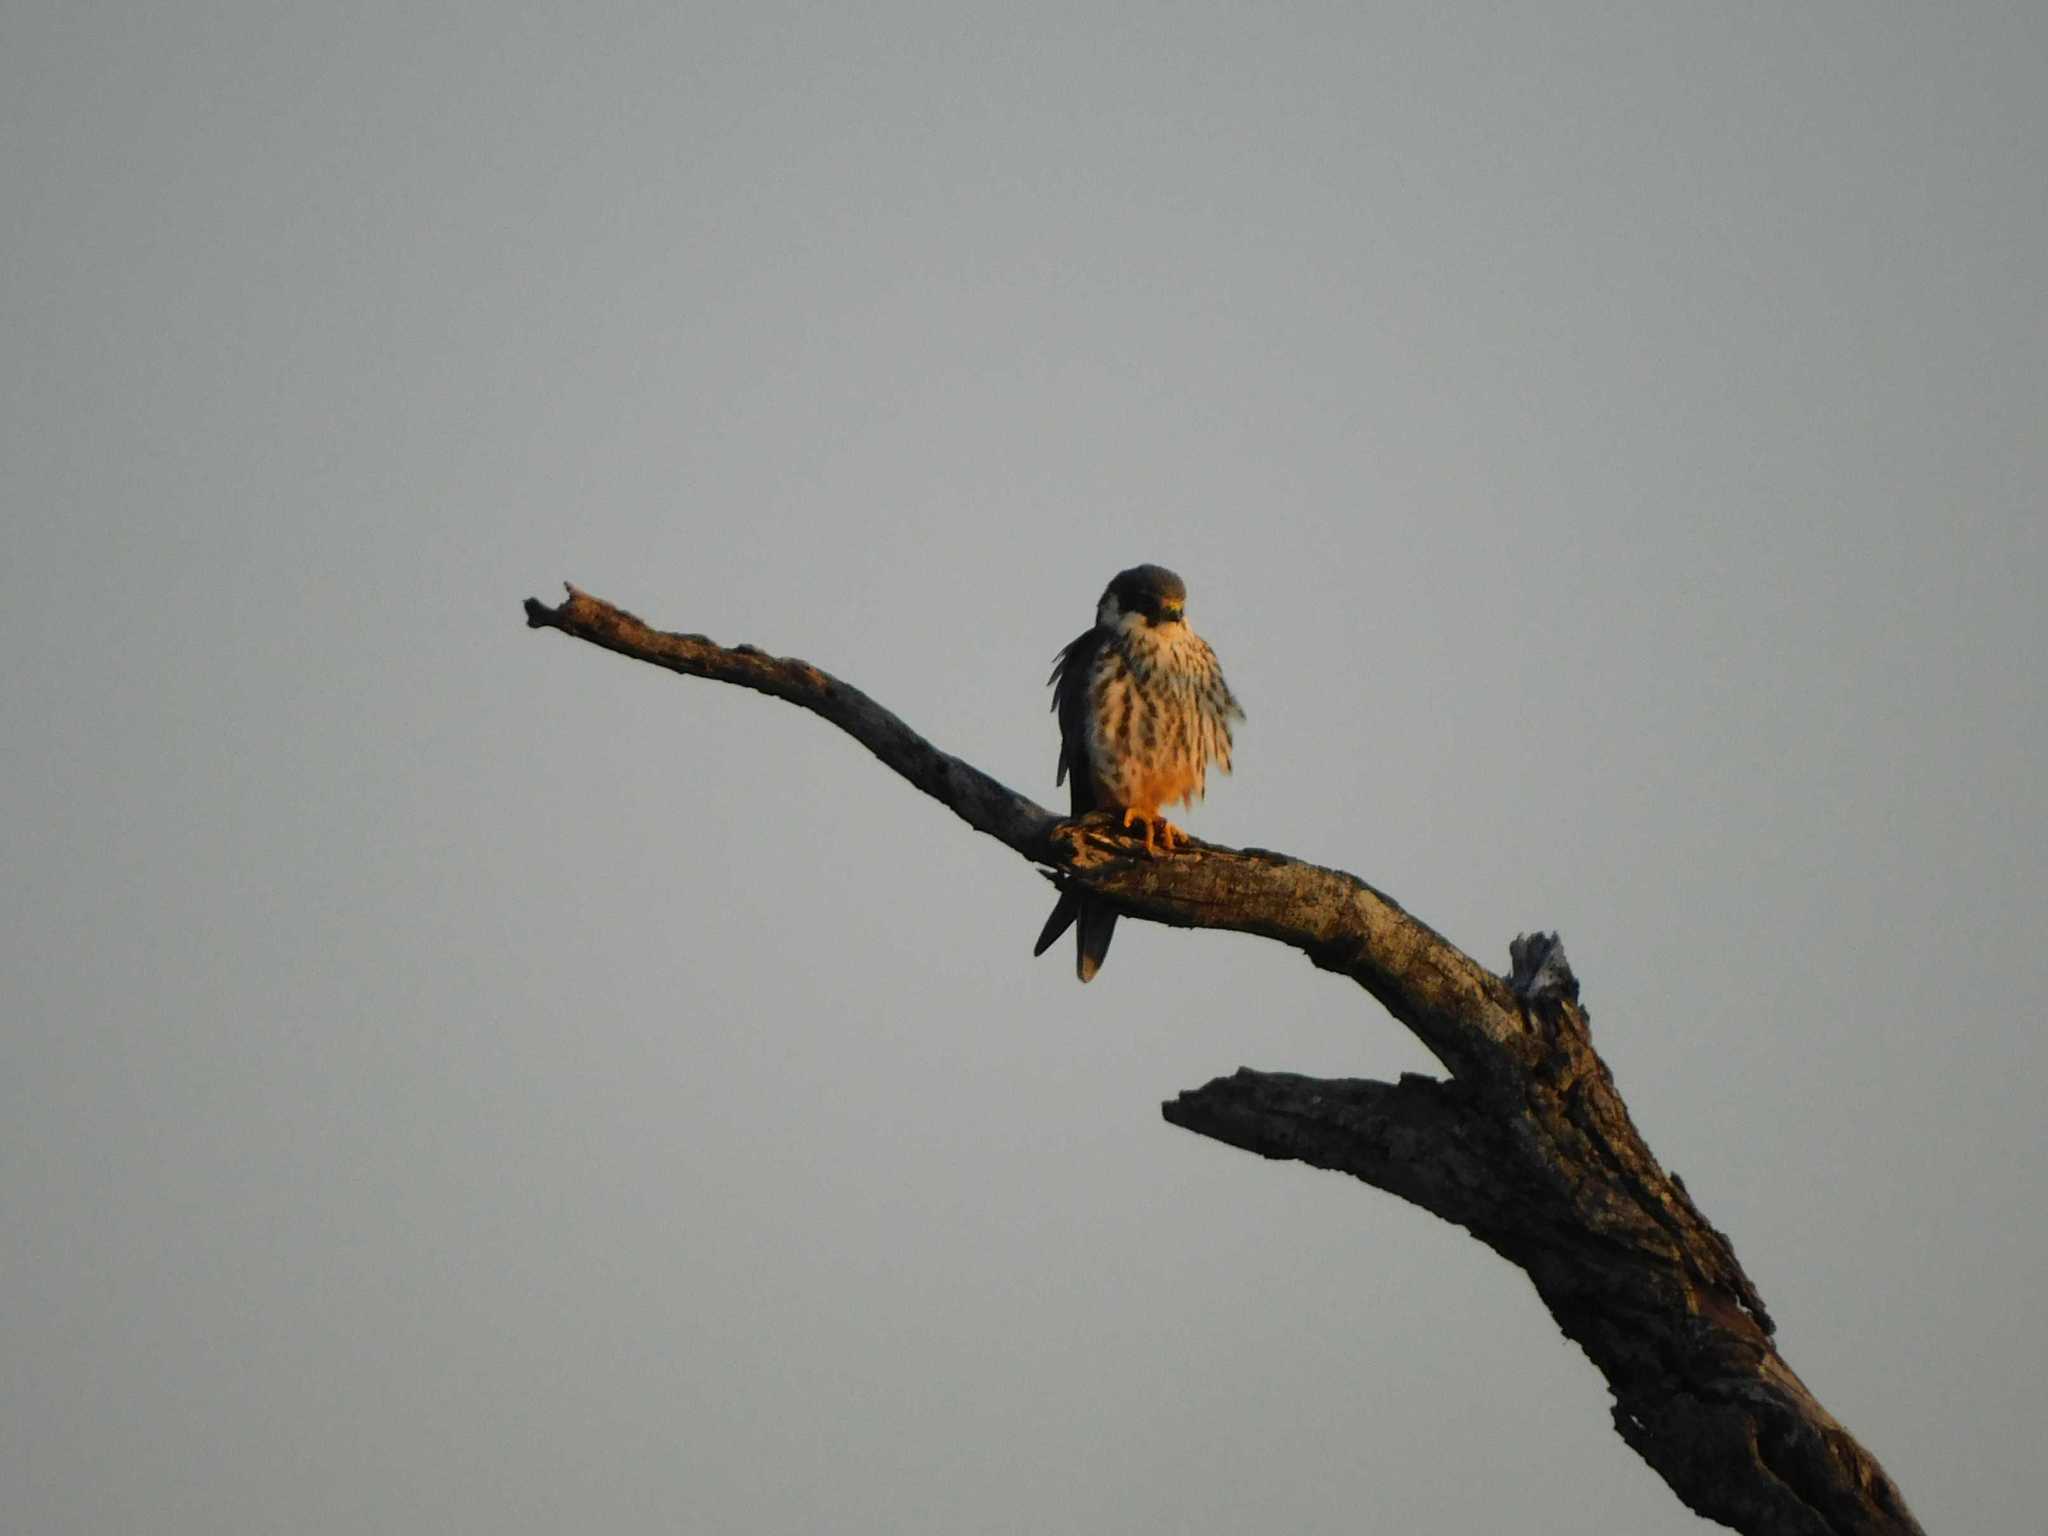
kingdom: Animalia
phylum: Chordata
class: Aves
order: Falconiformes
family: Falconidae
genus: Falco
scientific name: Falco subbuteo
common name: Eurasian hobby
